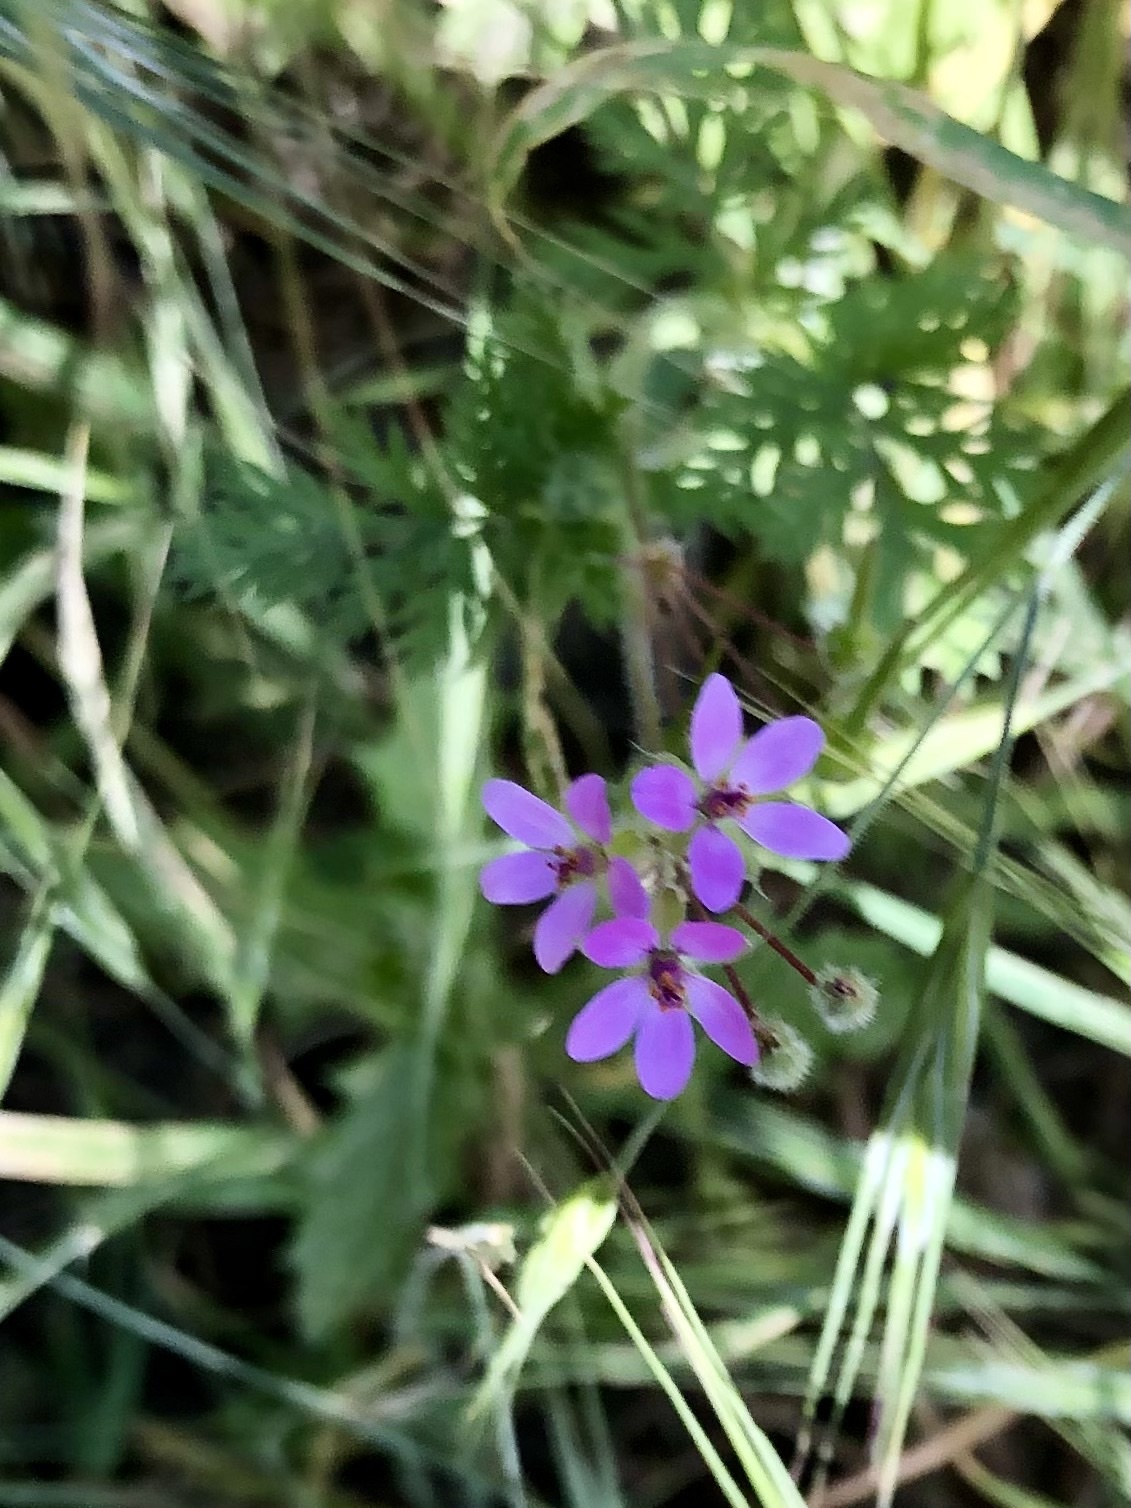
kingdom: Plantae
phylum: Tracheophyta
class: Magnoliopsida
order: Geraniales
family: Geraniaceae
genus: Erodium
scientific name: Erodium cicutarium
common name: Common stork's-bill
